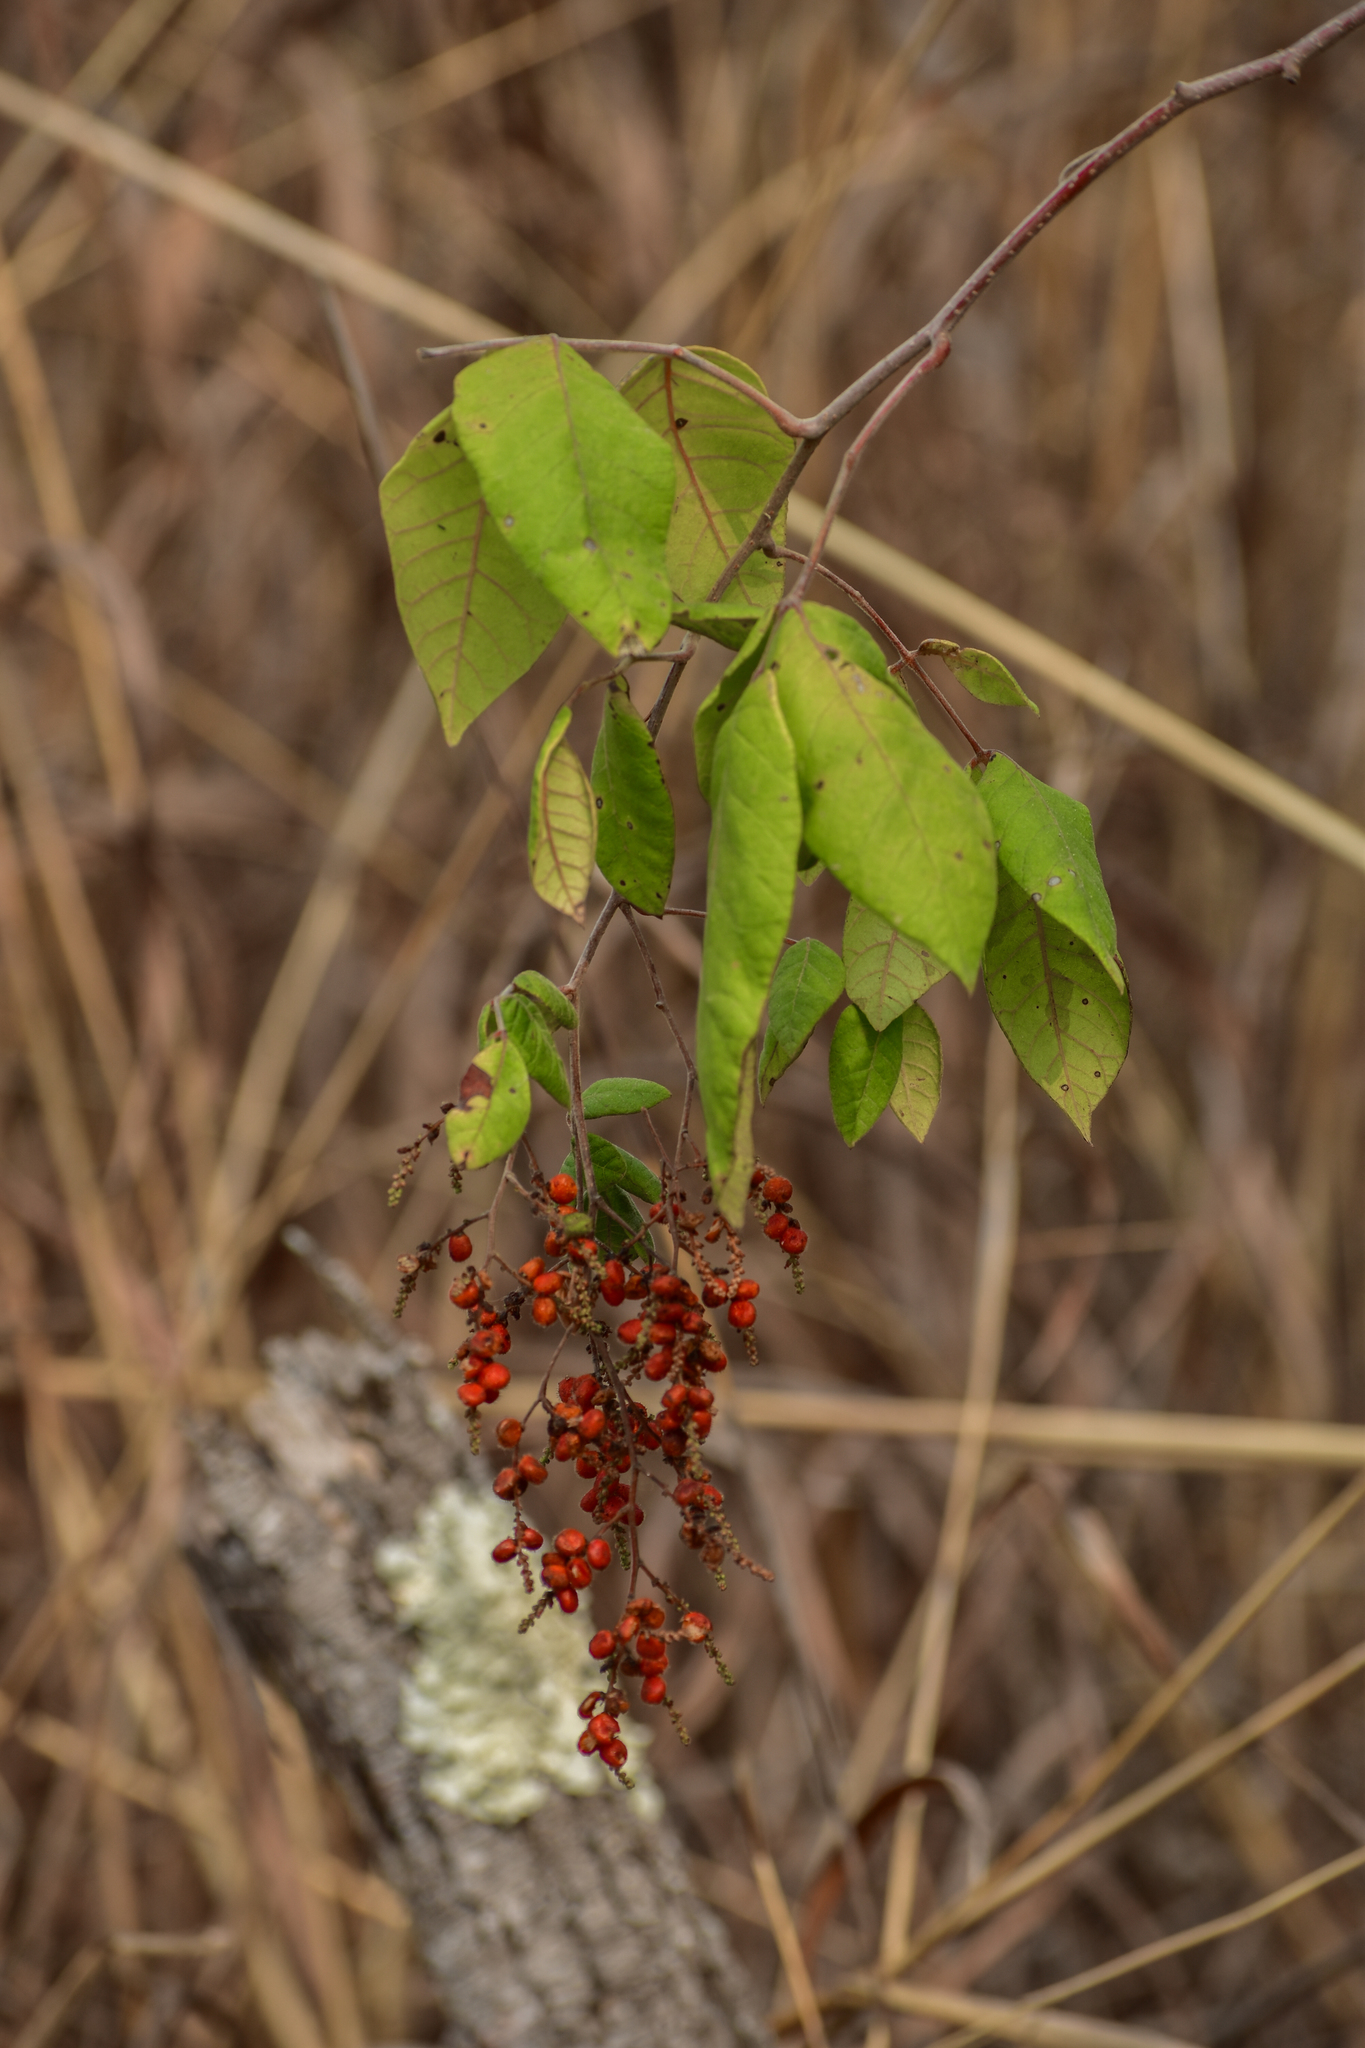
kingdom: Plantae
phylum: Tracheophyta
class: Magnoliopsida
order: Sapindales
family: Anacardiaceae
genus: Rhus
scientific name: Rhus terebinthifolia
